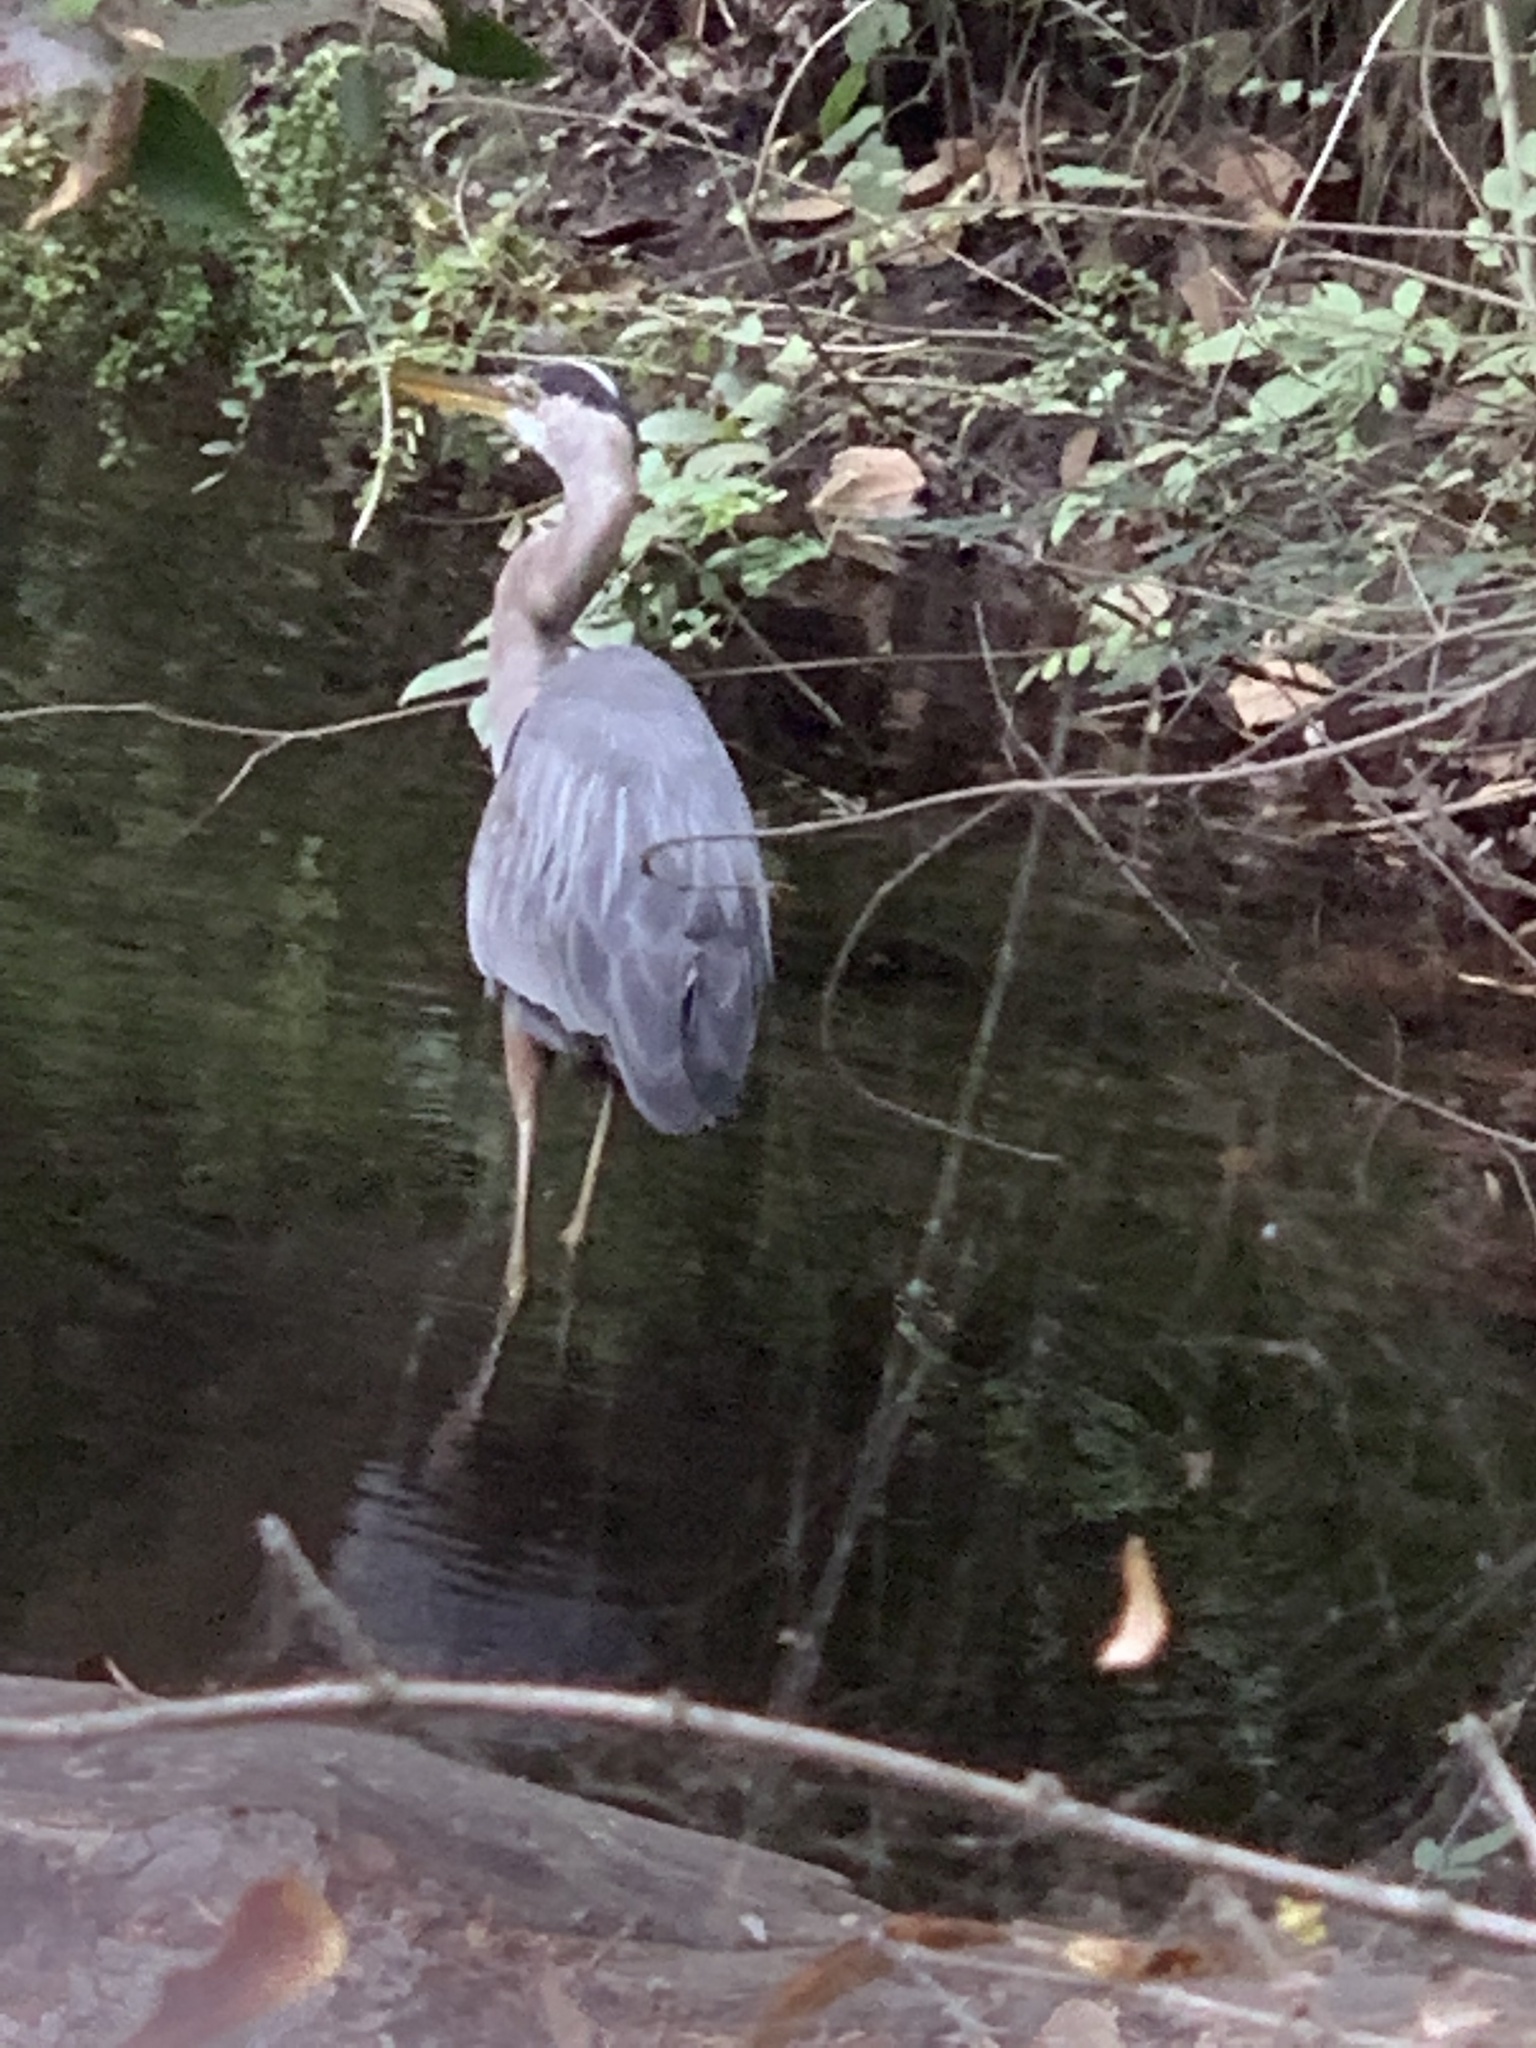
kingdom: Animalia
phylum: Chordata
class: Aves
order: Pelecaniformes
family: Ardeidae
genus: Ardea
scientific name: Ardea herodias
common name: Great blue heron
